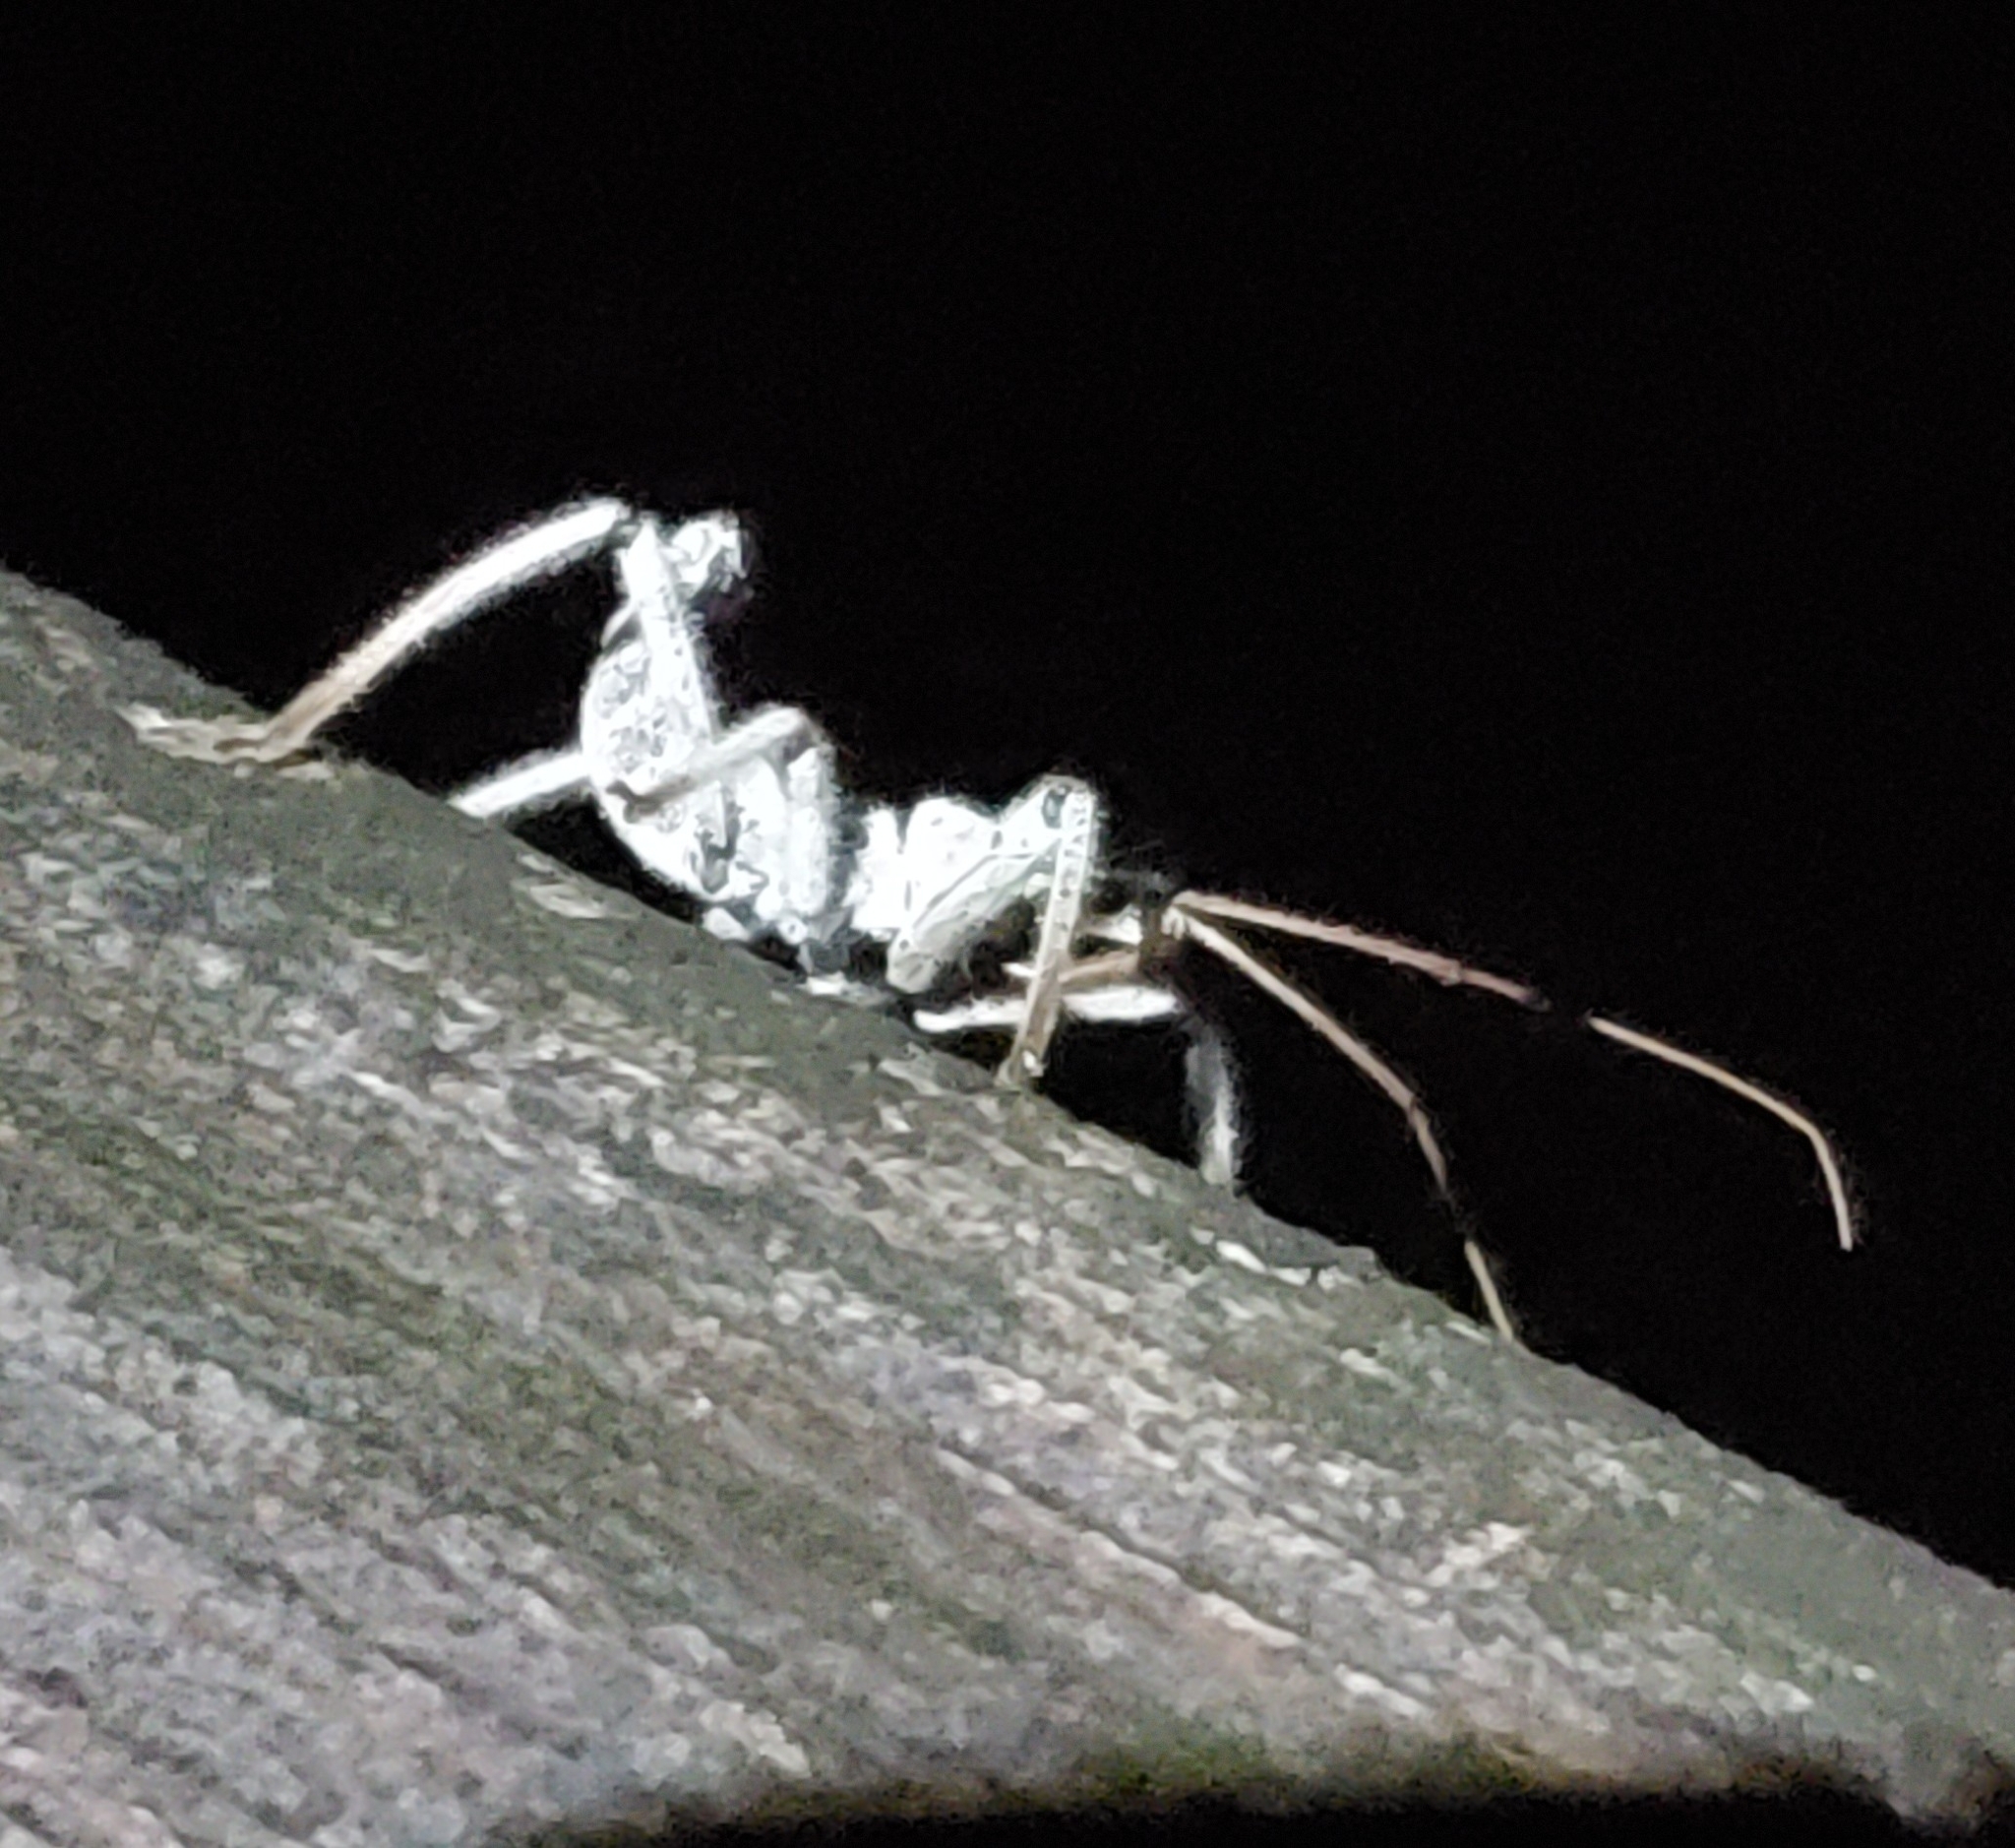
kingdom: Animalia
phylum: Arthropoda
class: Insecta
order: Hemiptera
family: Reduviidae
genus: Arilus
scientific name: Arilus cristatus
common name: North american wheel bug
